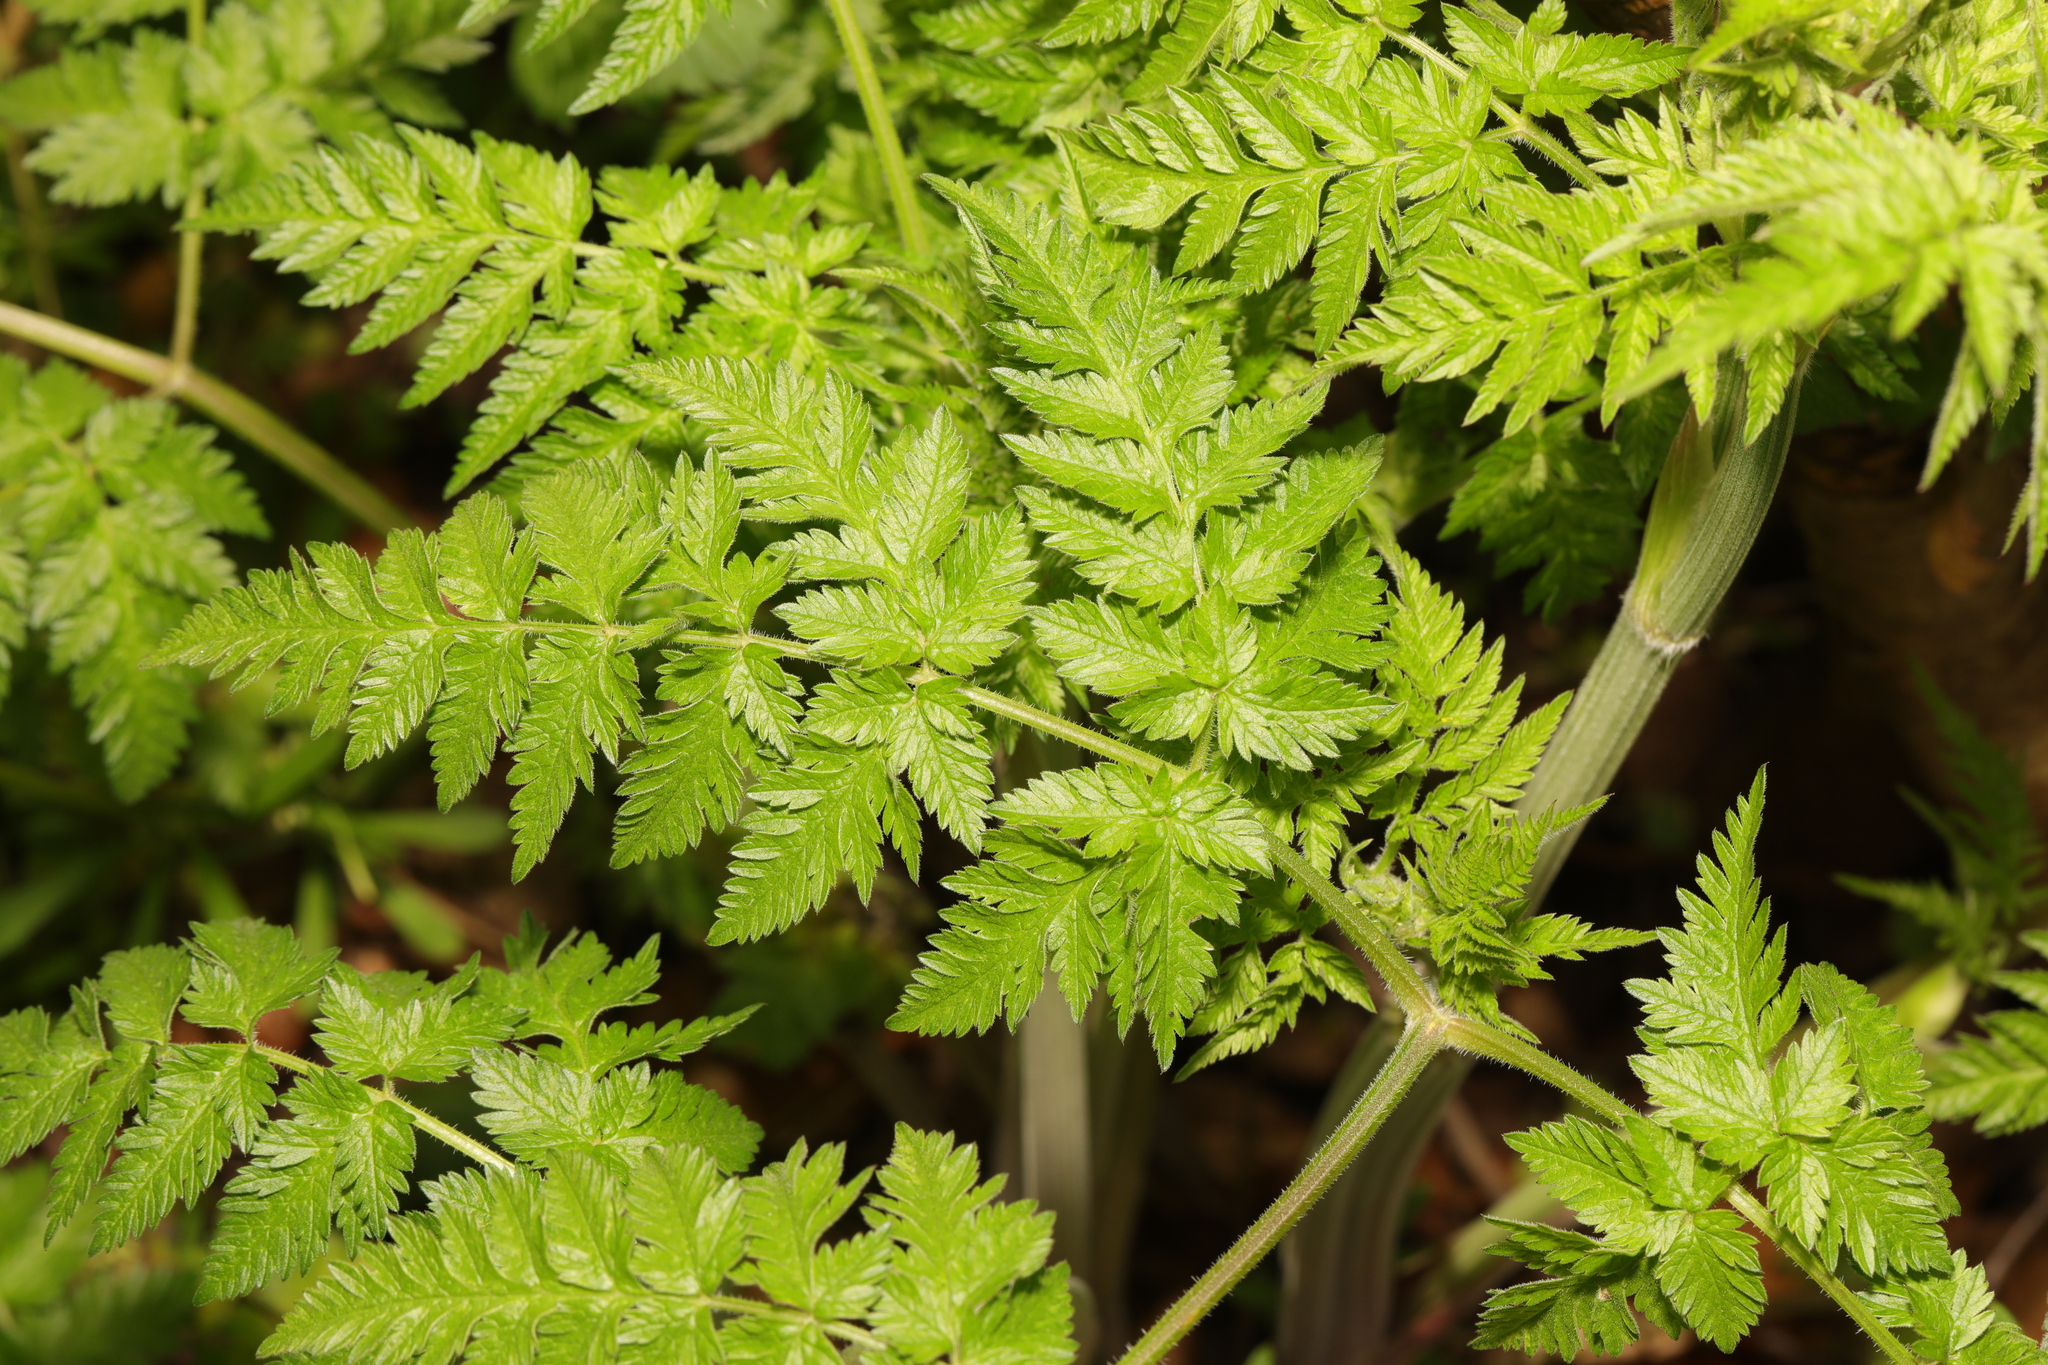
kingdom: Plantae
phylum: Tracheophyta
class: Magnoliopsida
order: Apiales
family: Apiaceae
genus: Anthriscus
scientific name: Anthriscus sylvestris
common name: Cow parsley
